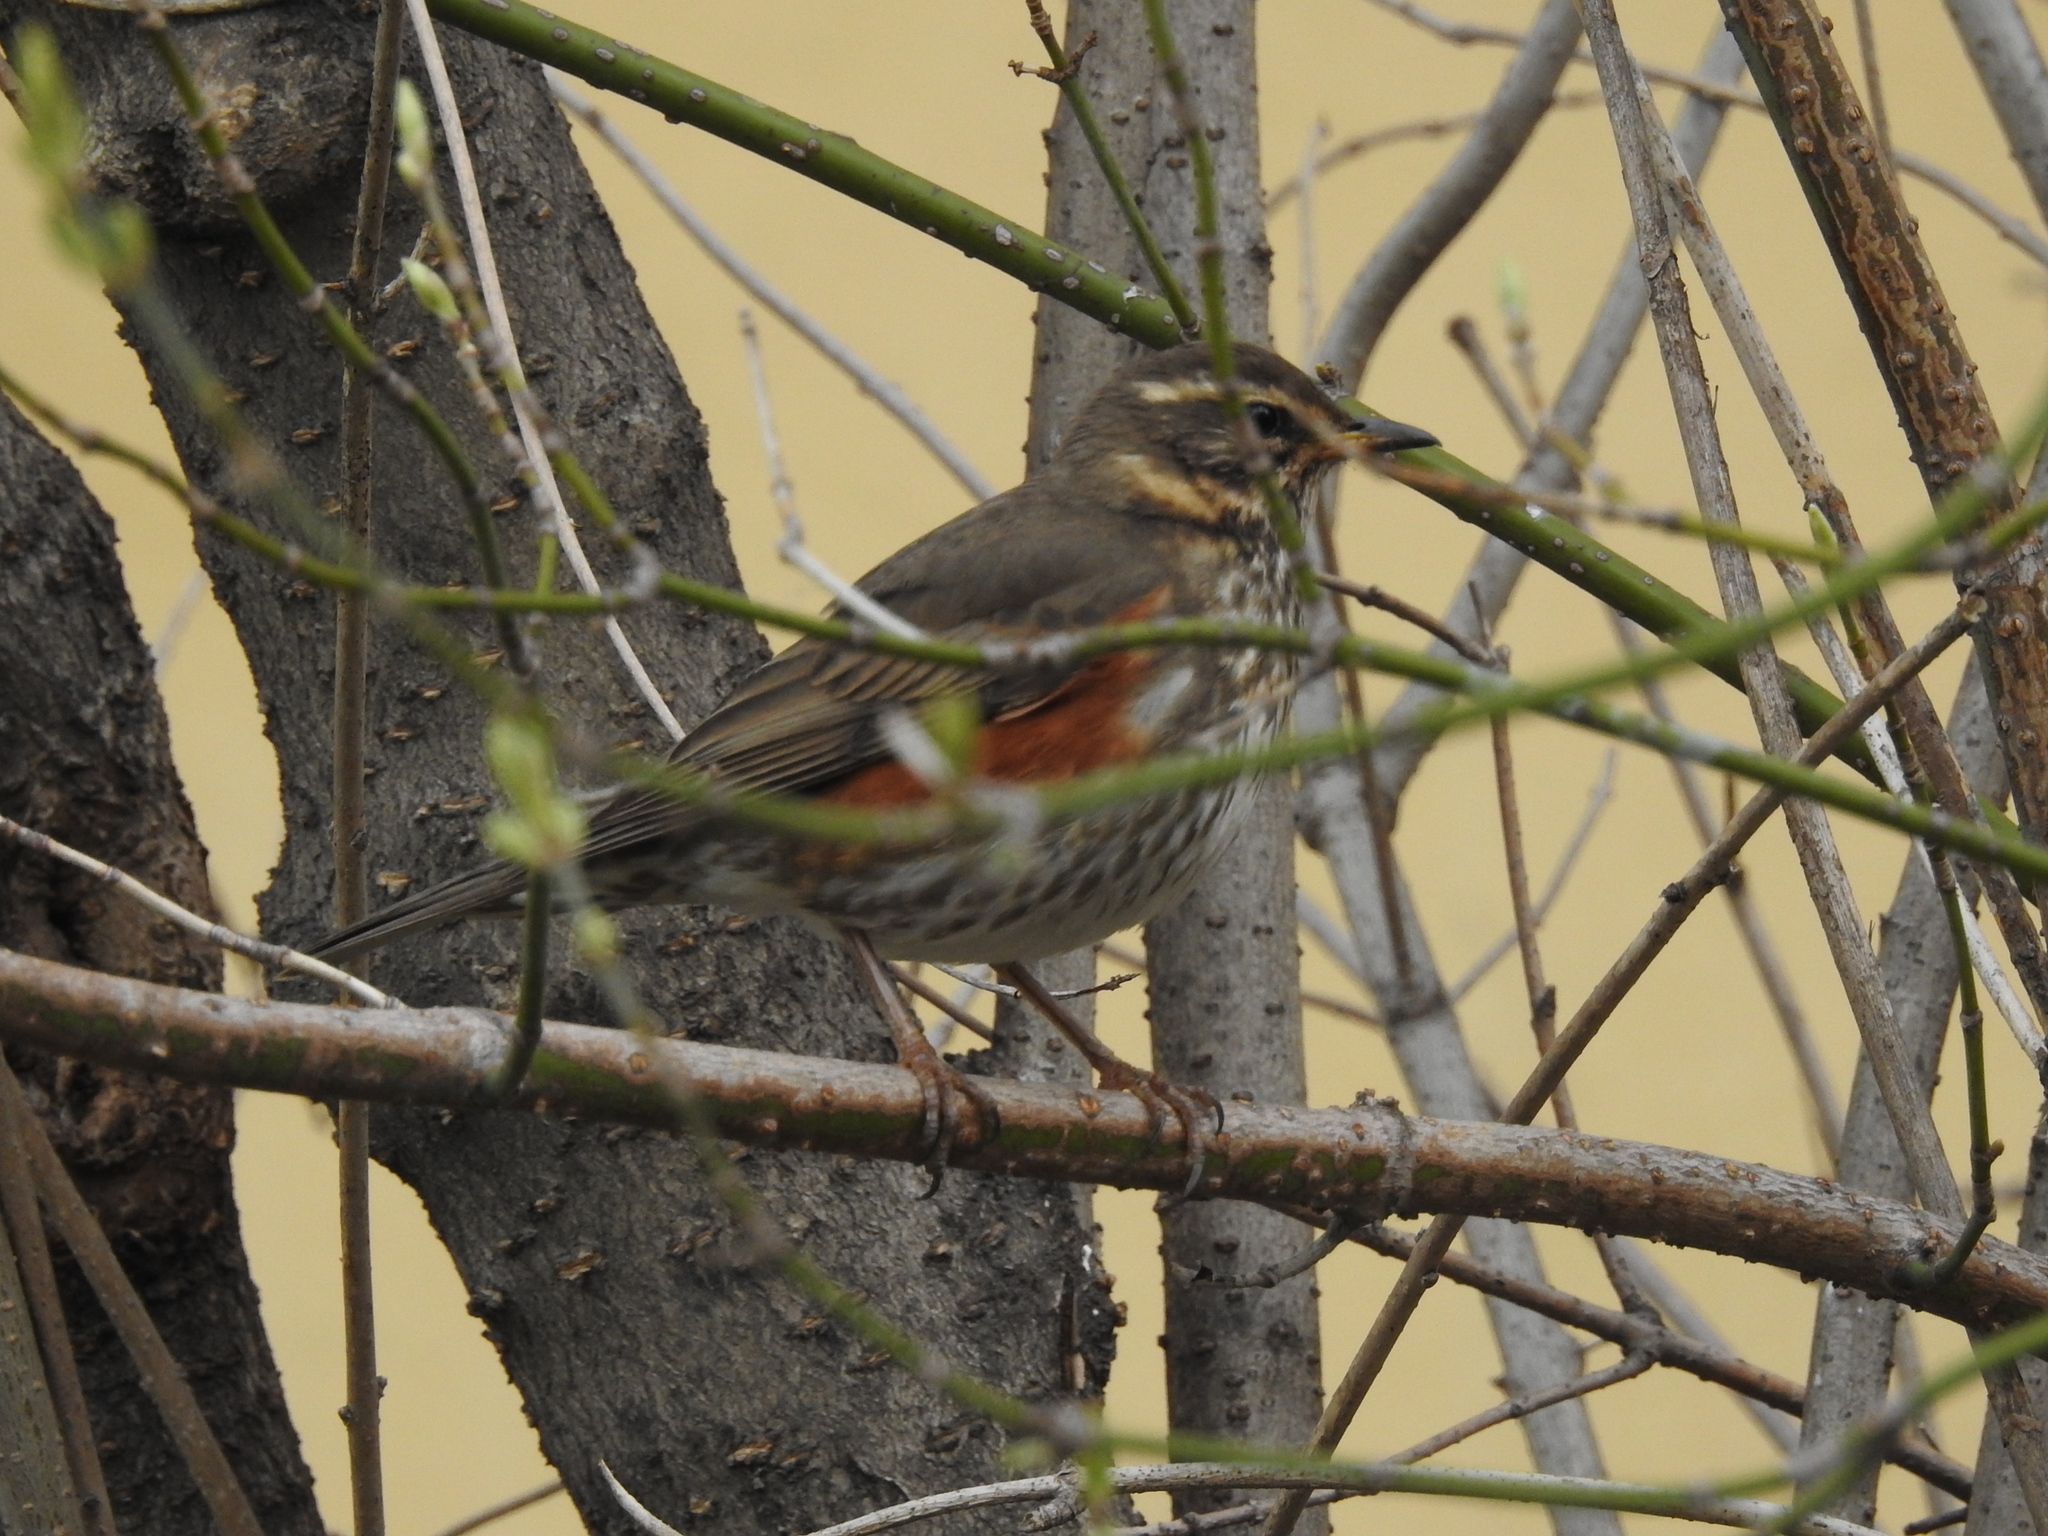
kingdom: Animalia
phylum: Chordata
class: Aves
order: Passeriformes
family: Turdidae
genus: Turdus
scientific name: Turdus iliacus
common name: Redwing
